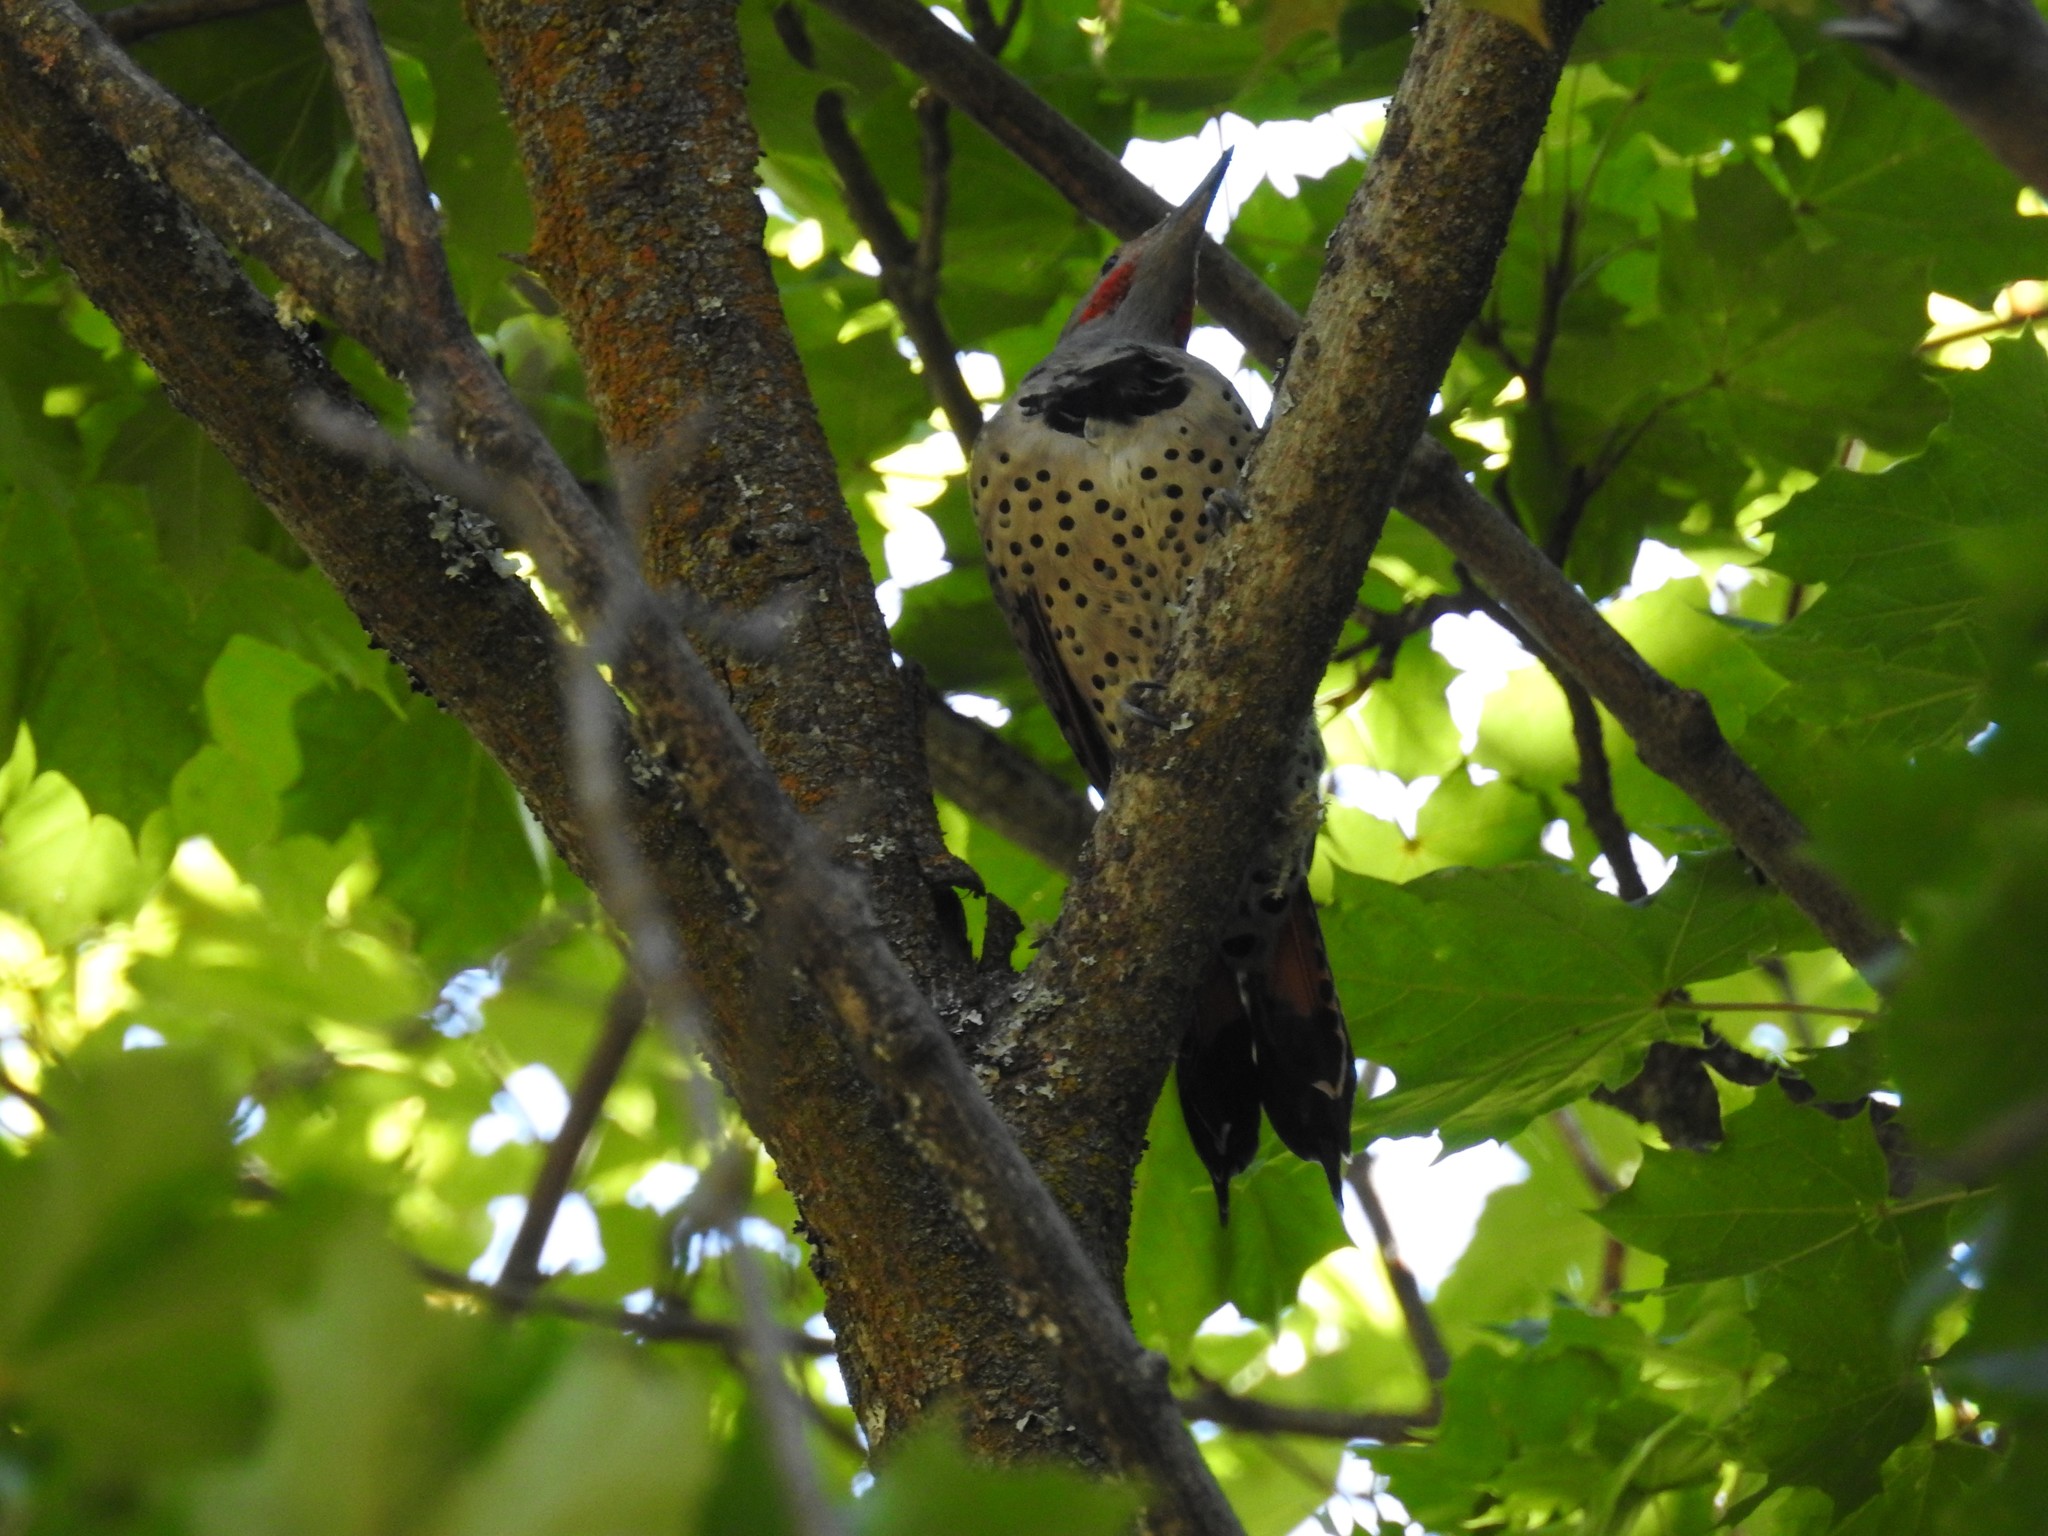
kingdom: Animalia
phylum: Chordata
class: Aves
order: Piciformes
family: Picidae
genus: Colaptes
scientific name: Colaptes auratus
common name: Northern flicker
